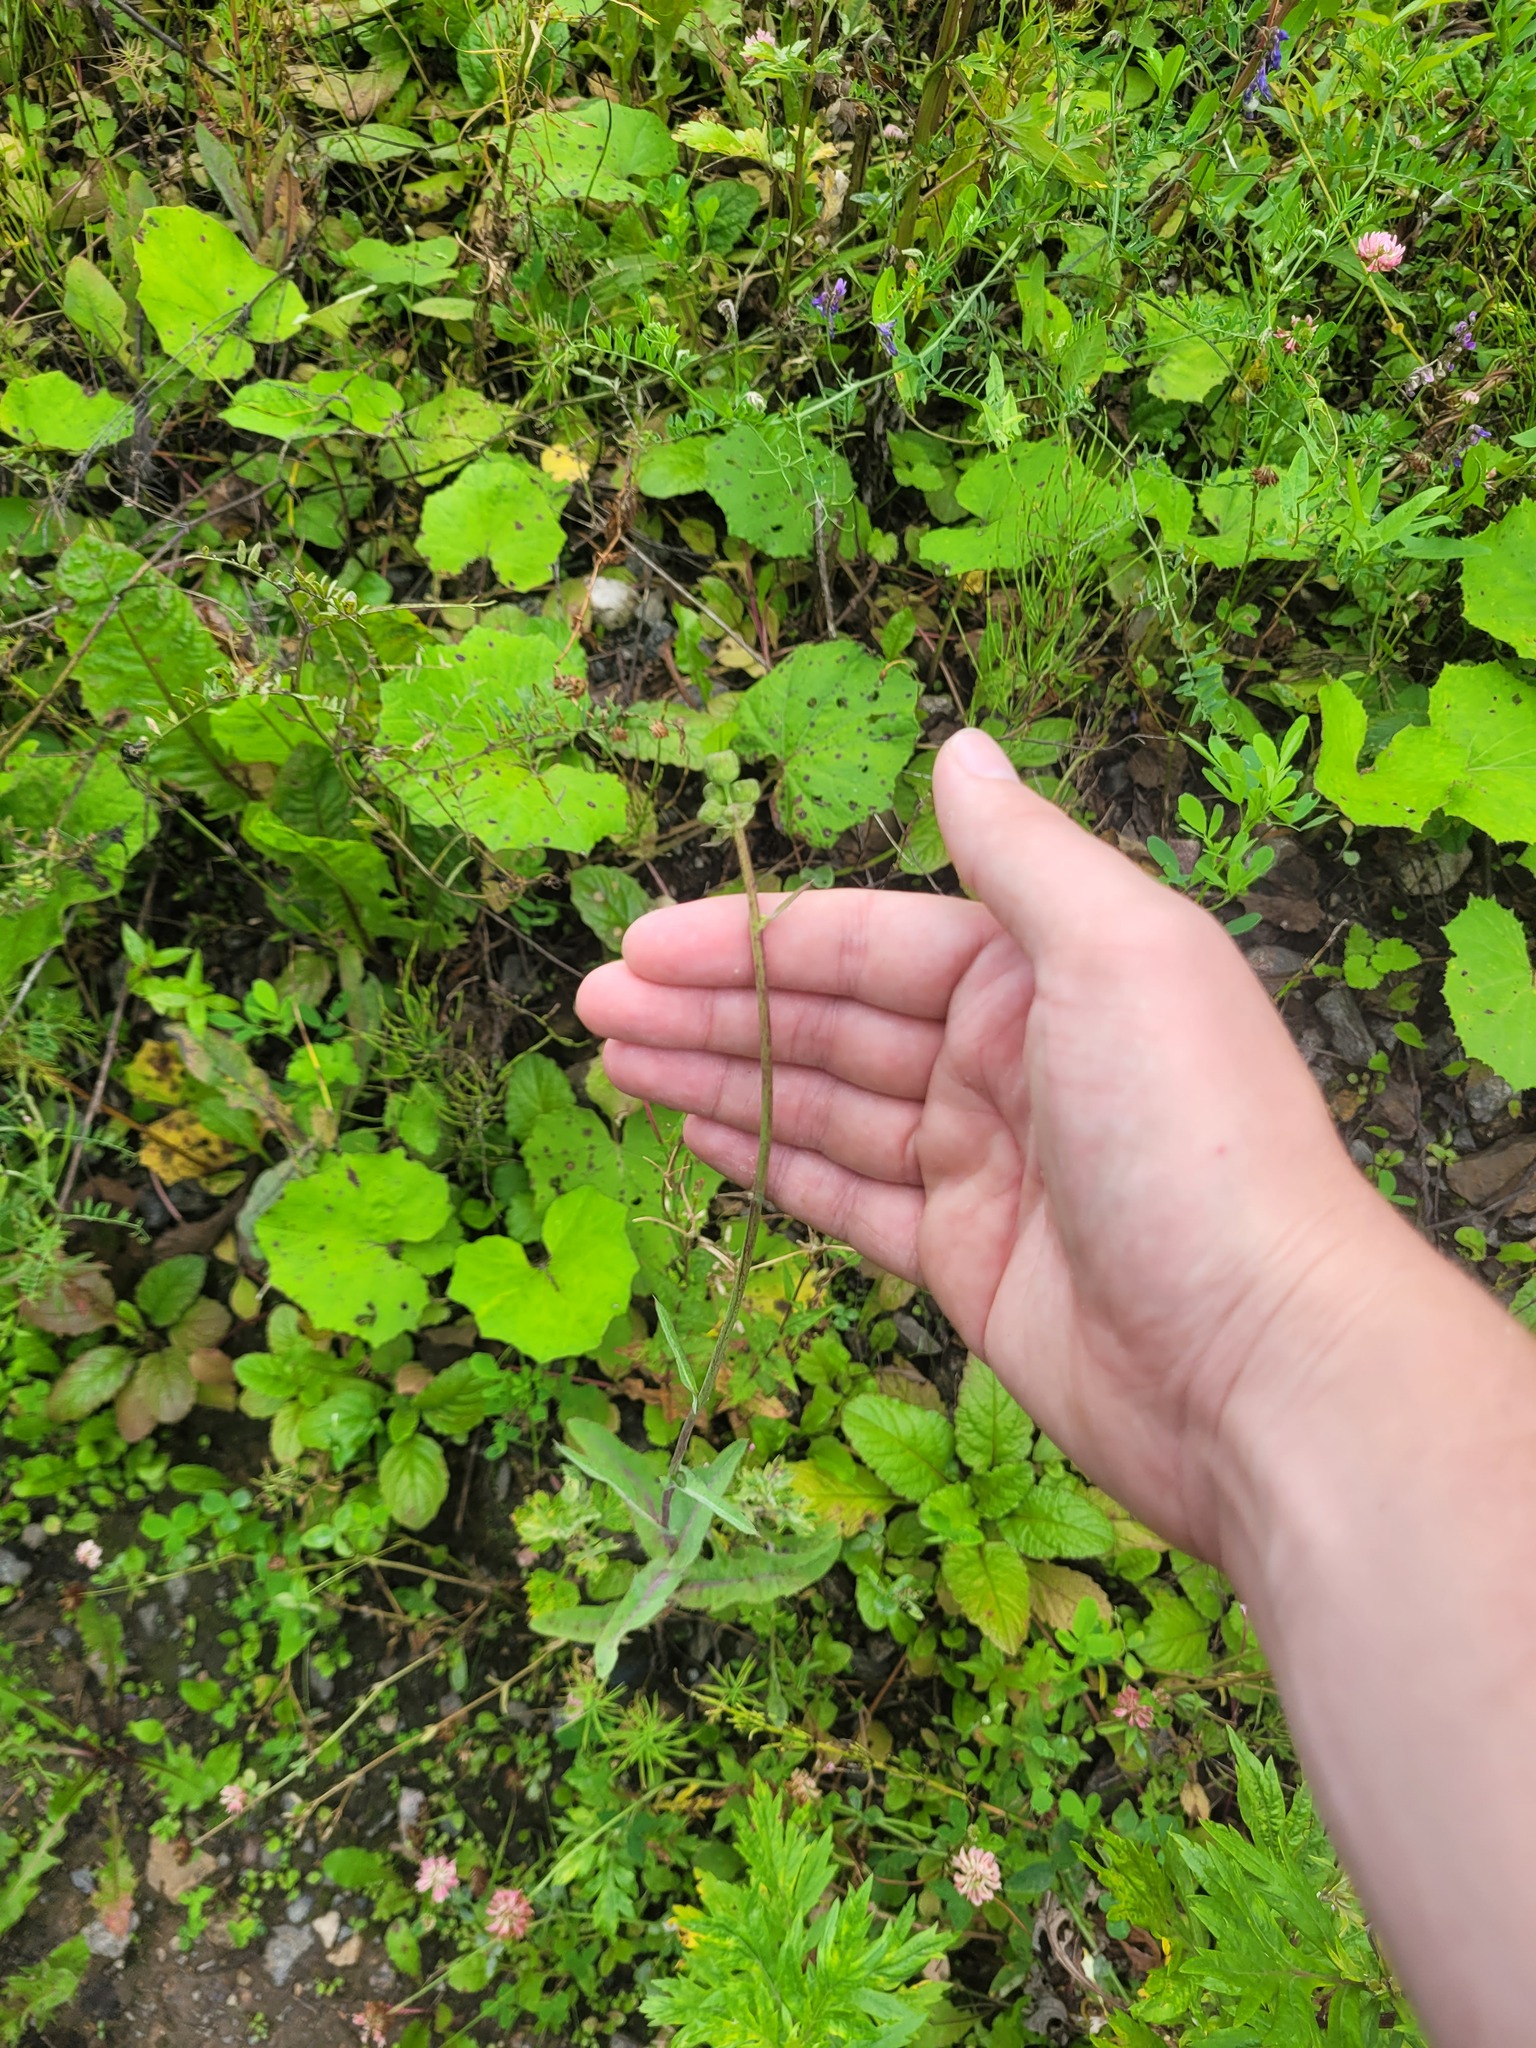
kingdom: Plantae
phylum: Tracheophyta
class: Magnoliopsida
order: Asterales
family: Asteraceae
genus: Sonchus
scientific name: Sonchus arvensis
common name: Perennial sow-thistle
